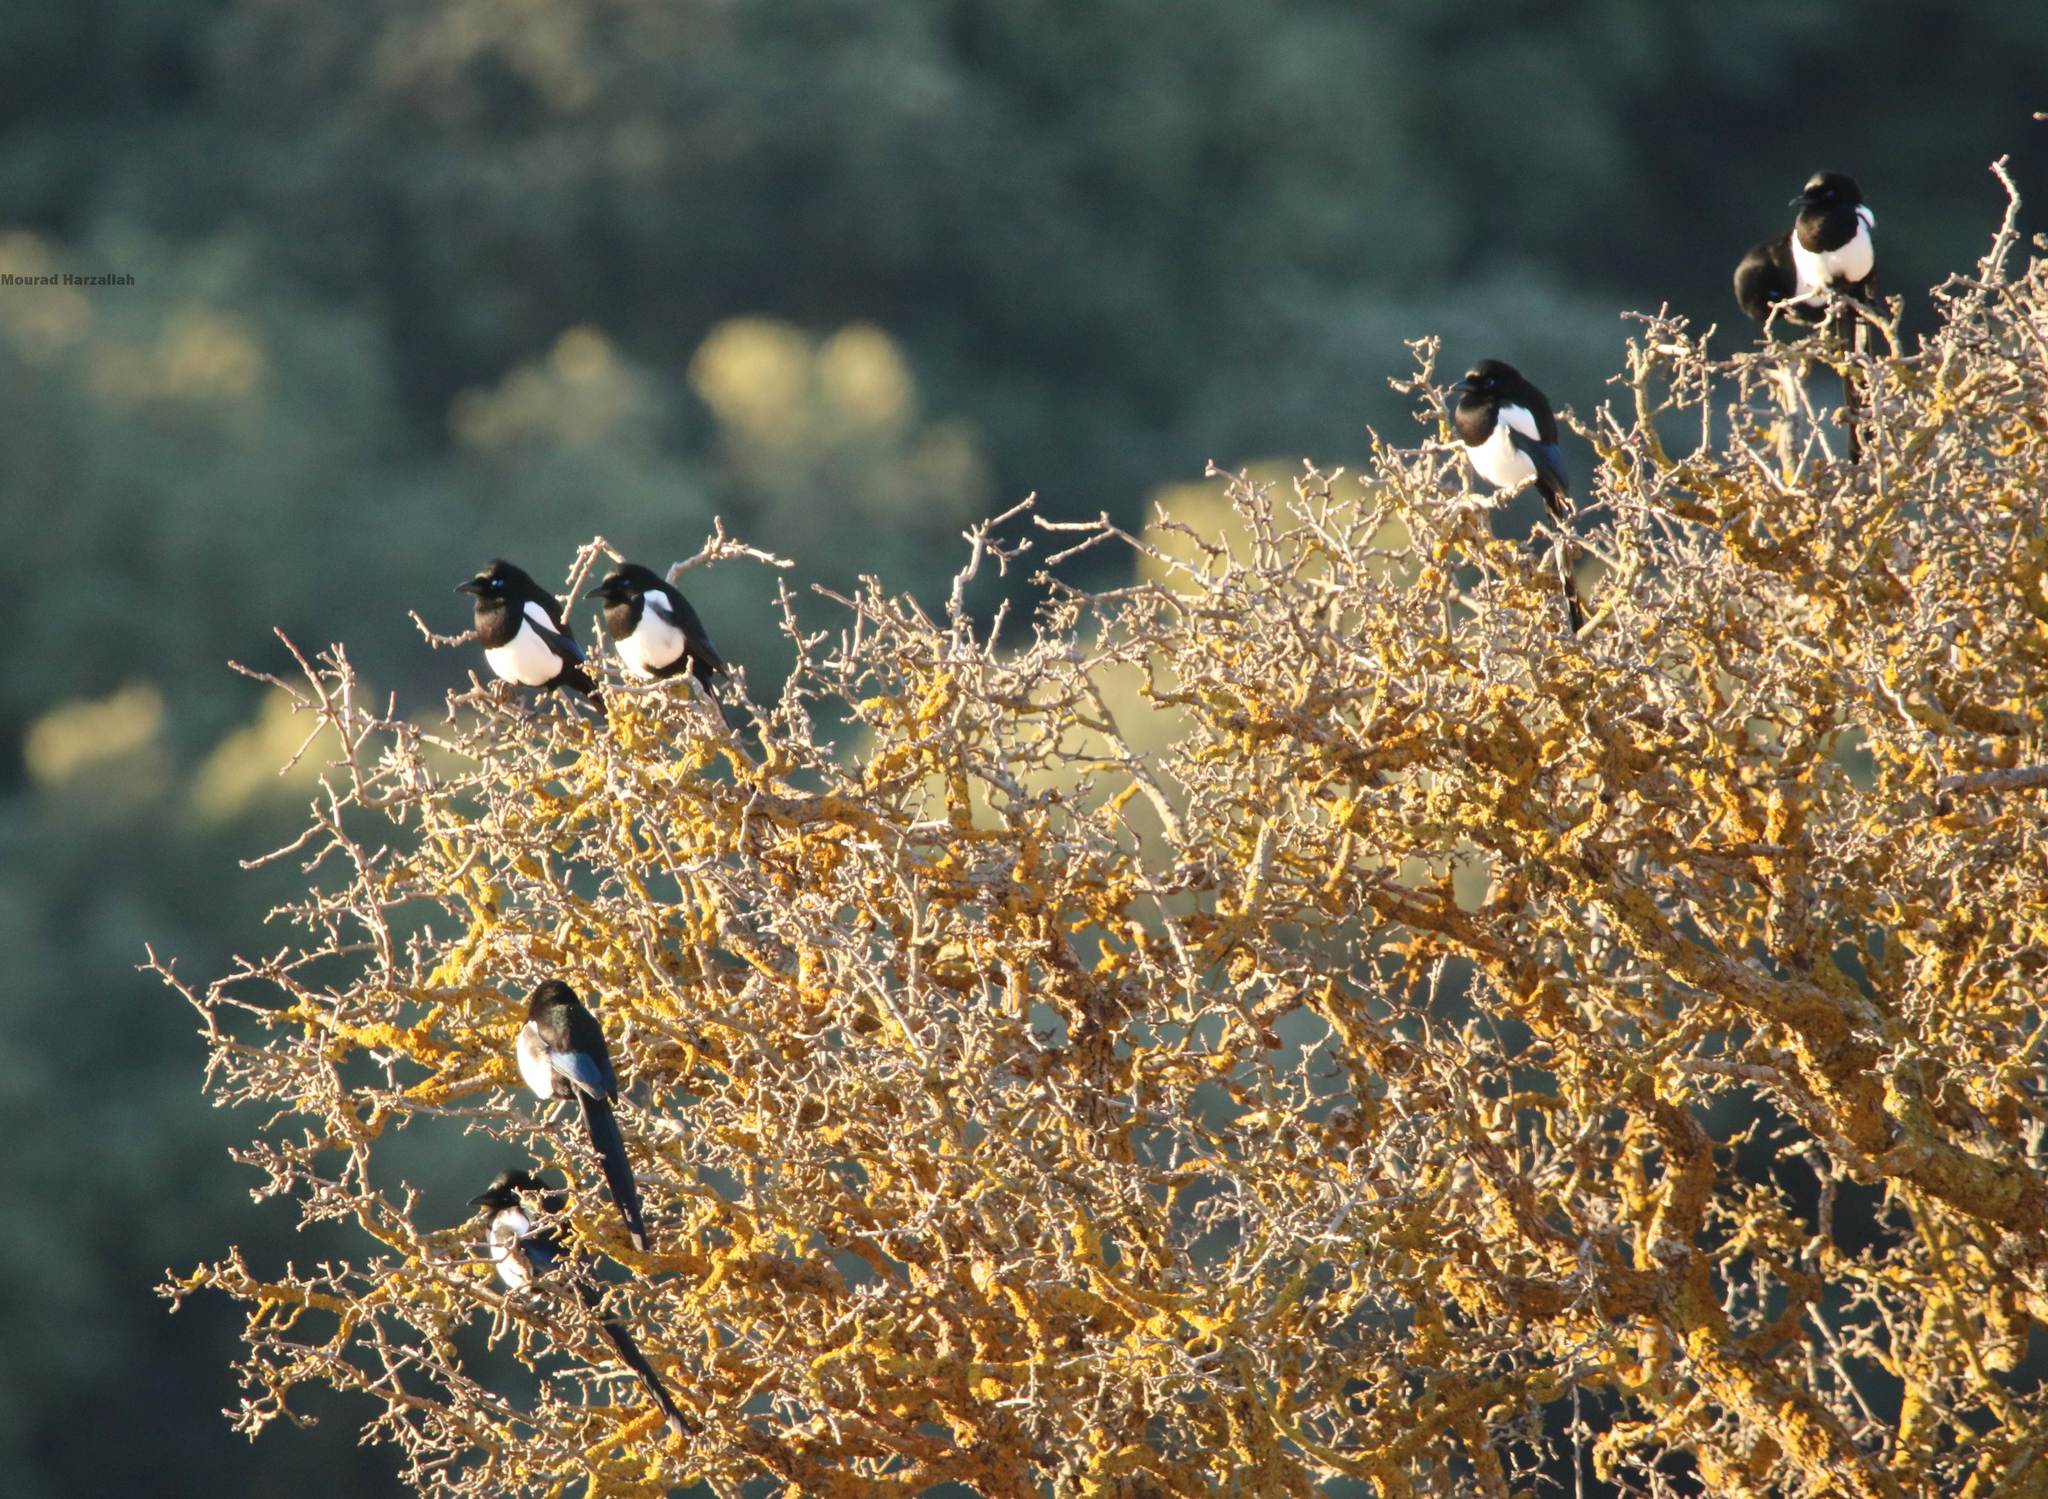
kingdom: Animalia
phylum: Chordata
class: Aves
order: Passeriformes
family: Corvidae
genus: Pica
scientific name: Pica mauritanica
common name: Maghreb magpie
